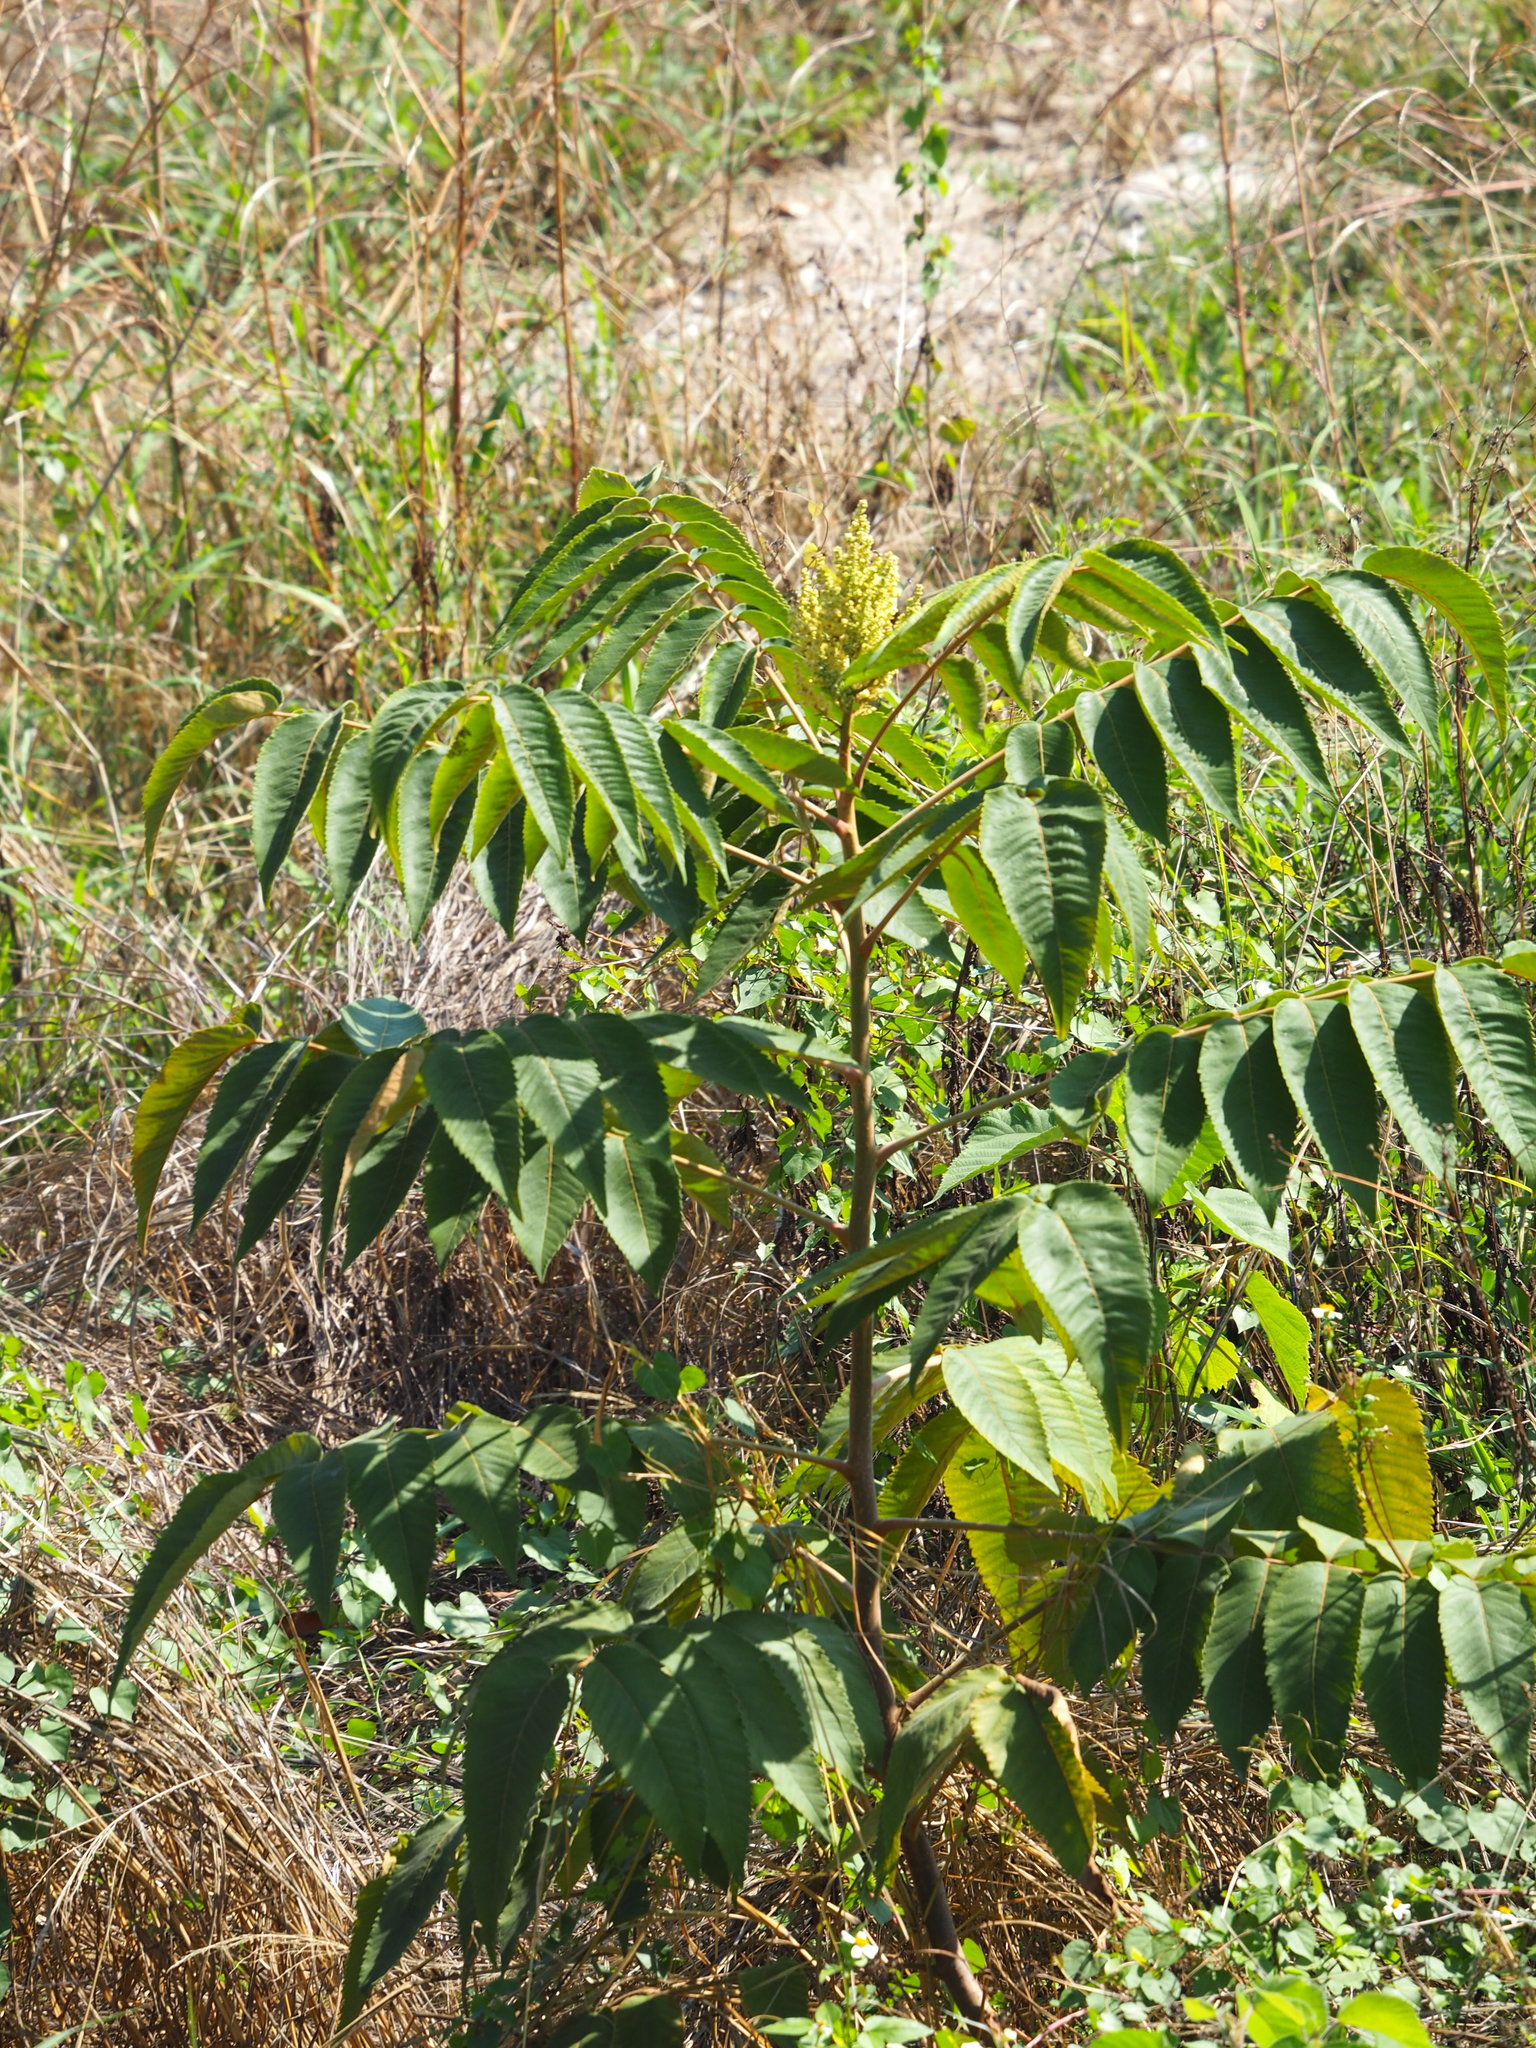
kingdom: Plantae
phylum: Tracheophyta
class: Magnoliopsida
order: Sapindales
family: Anacardiaceae
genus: Rhus
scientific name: Rhus chinensis
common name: Chinese gall
